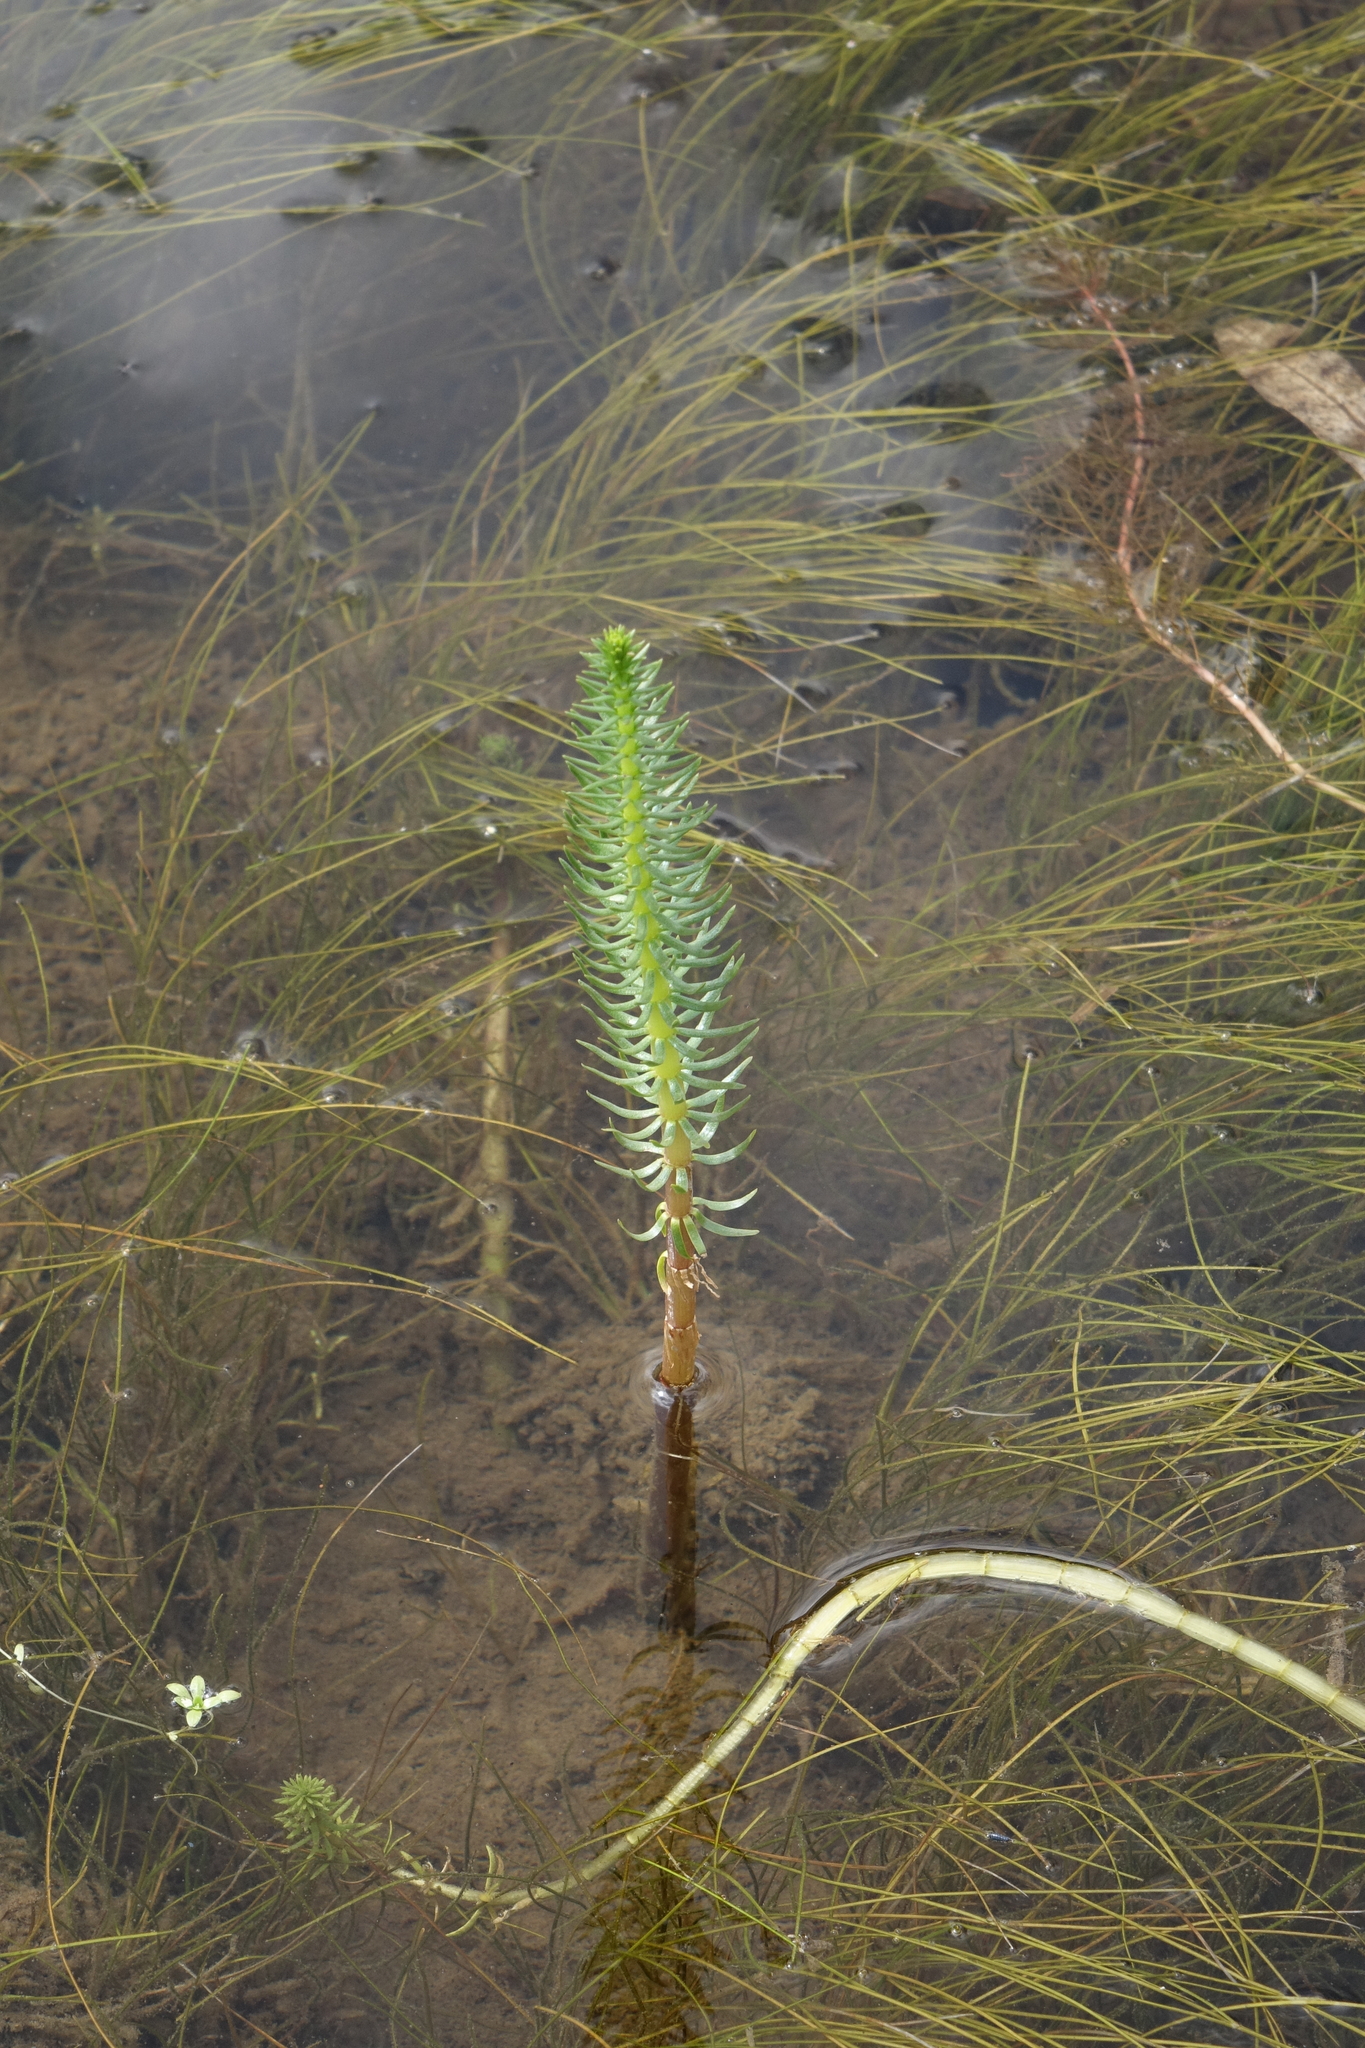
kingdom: Plantae
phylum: Tracheophyta
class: Magnoliopsida
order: Lamiales
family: Plantaginaceae
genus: Hippuris
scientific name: Hippuris vulgaris
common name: Mare's-tail
